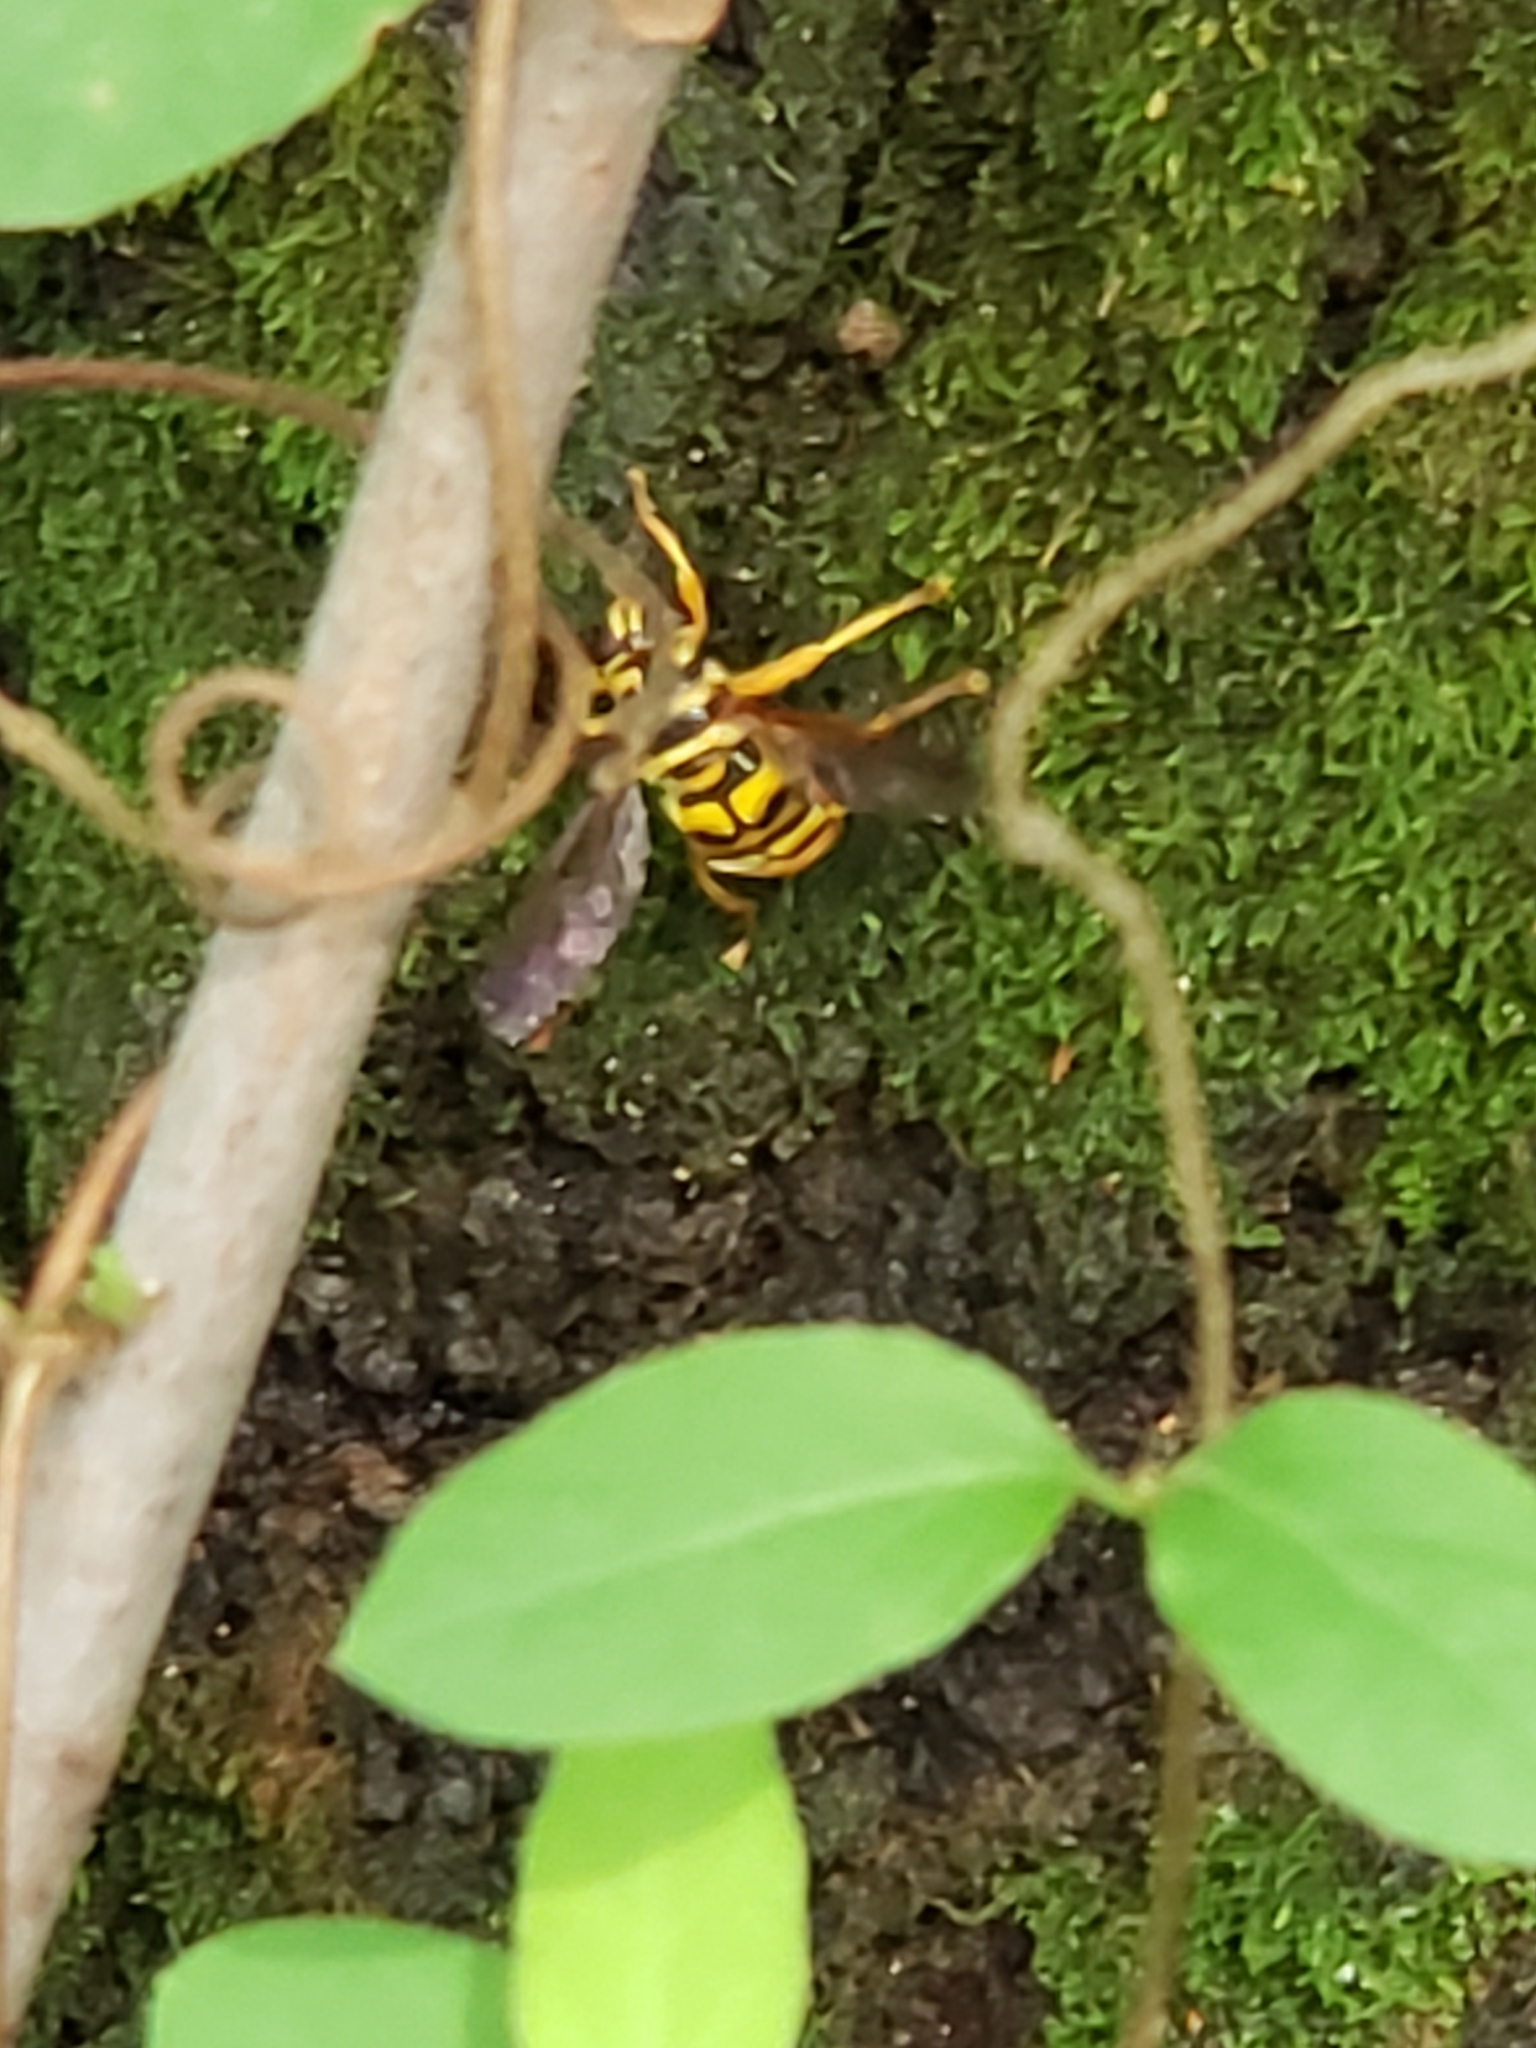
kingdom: Animalia
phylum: Arthropoda
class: Insecta
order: Diptera
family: Syrphidae
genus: Milesia
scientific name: Milesia virginiensis
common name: Virginia giant
